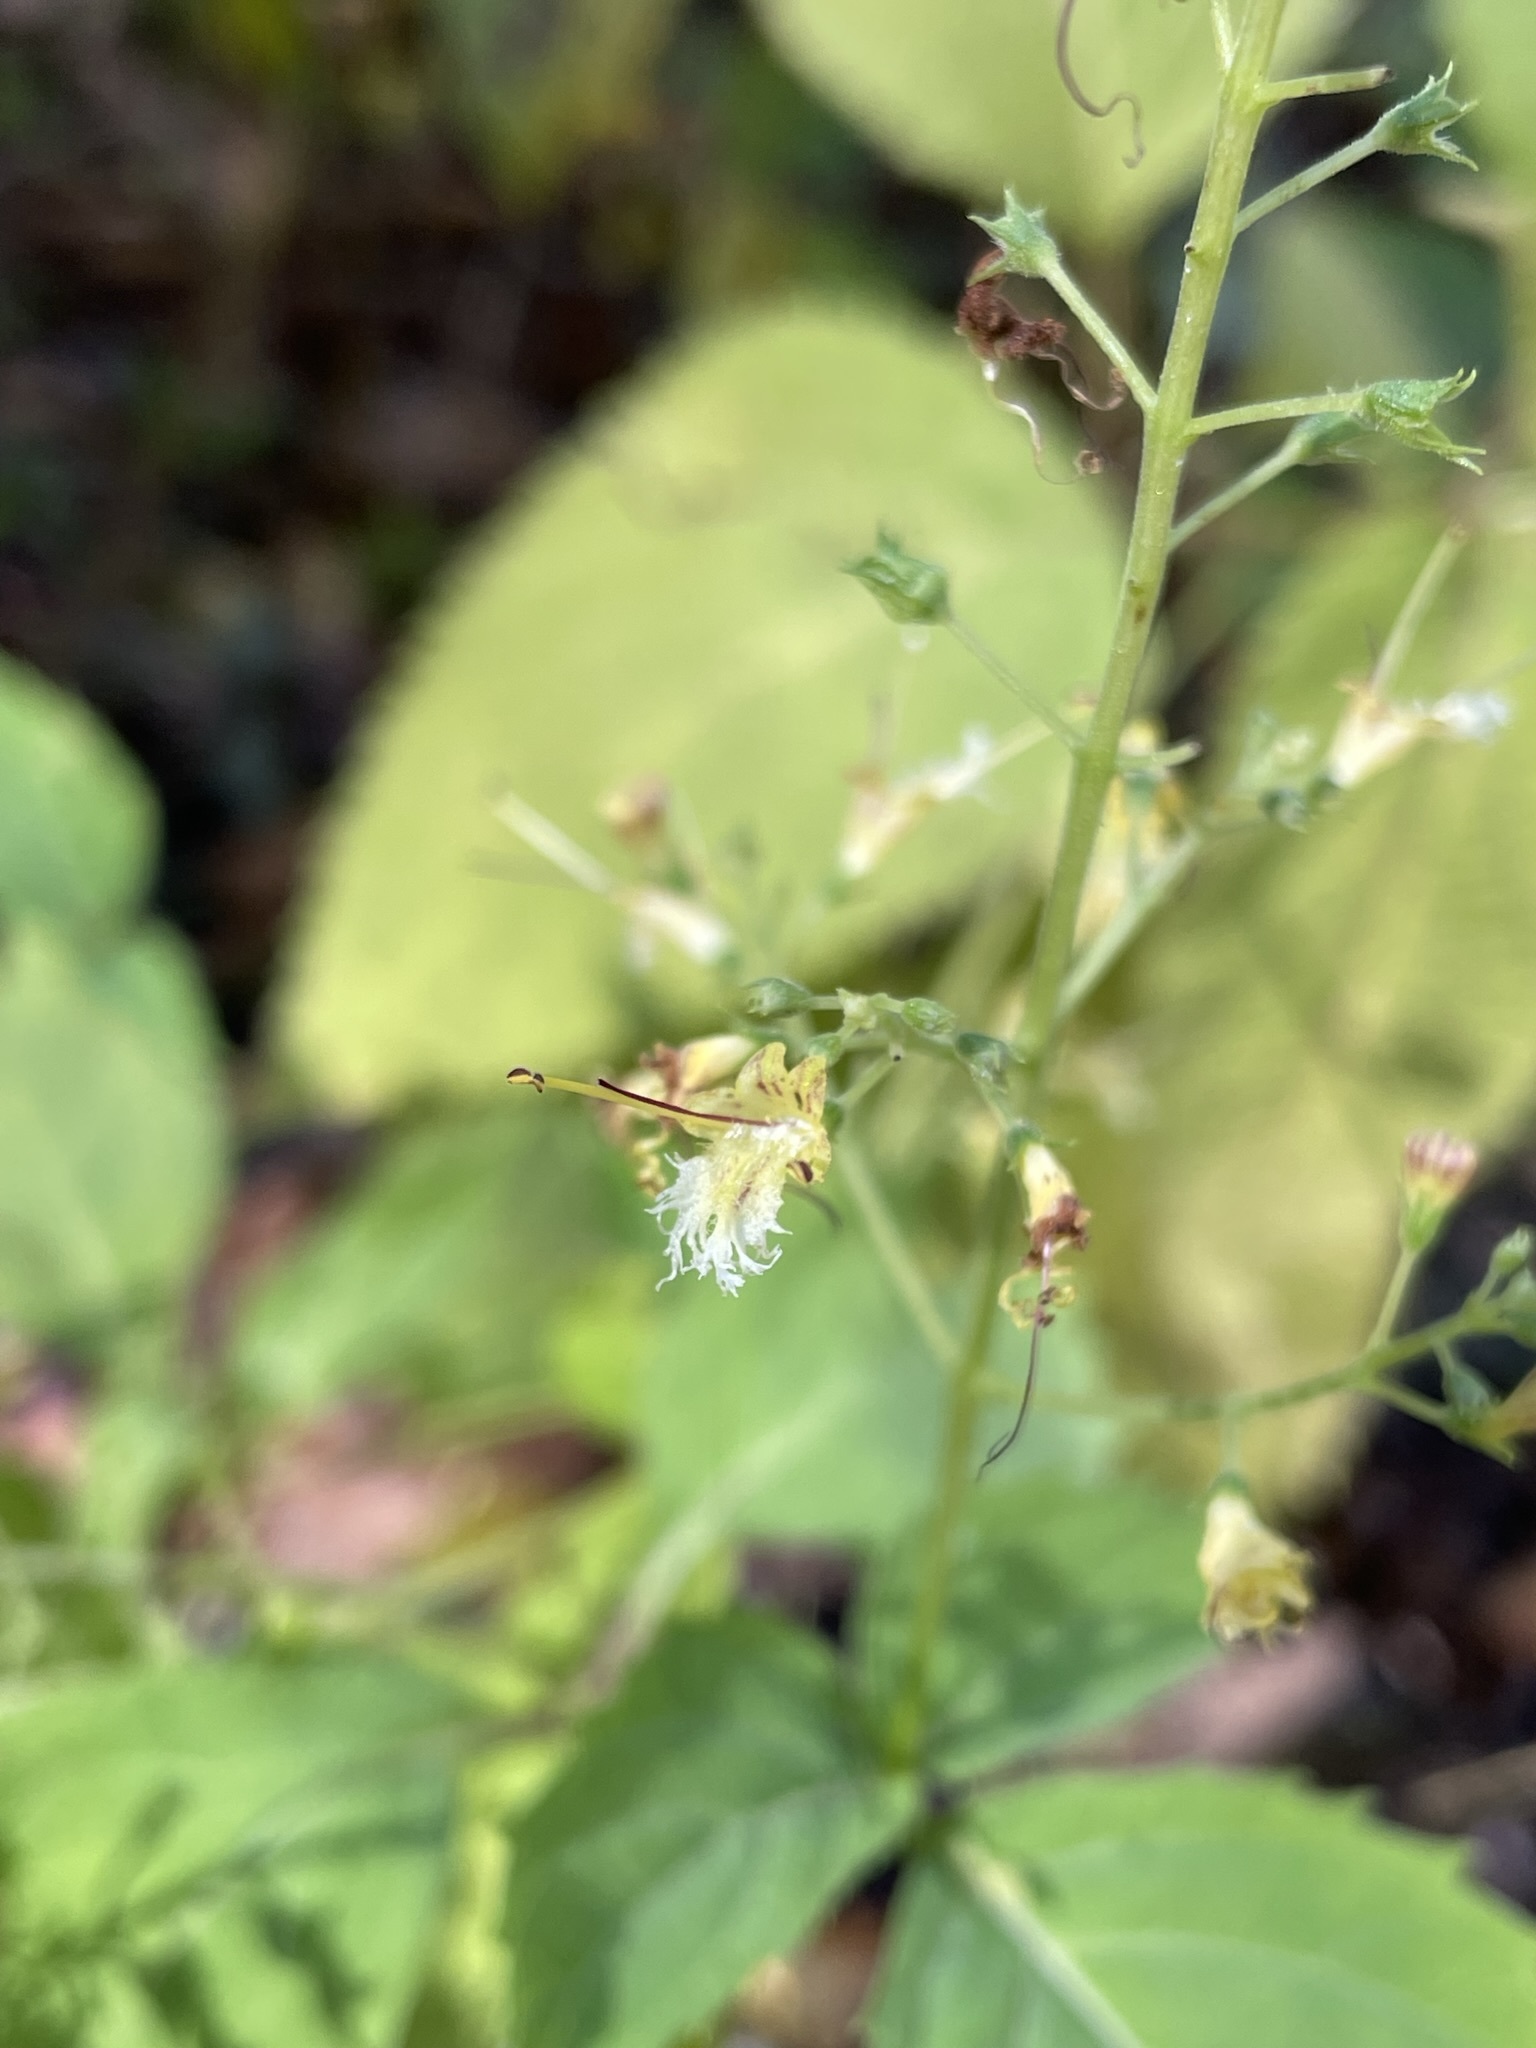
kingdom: Plantae
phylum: Tracheophyta
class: Magnoliopsida
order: Lamiales
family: Lamiaceae
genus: Collinsonia
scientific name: Collinsonia canadensis
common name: Northern horsebalm
